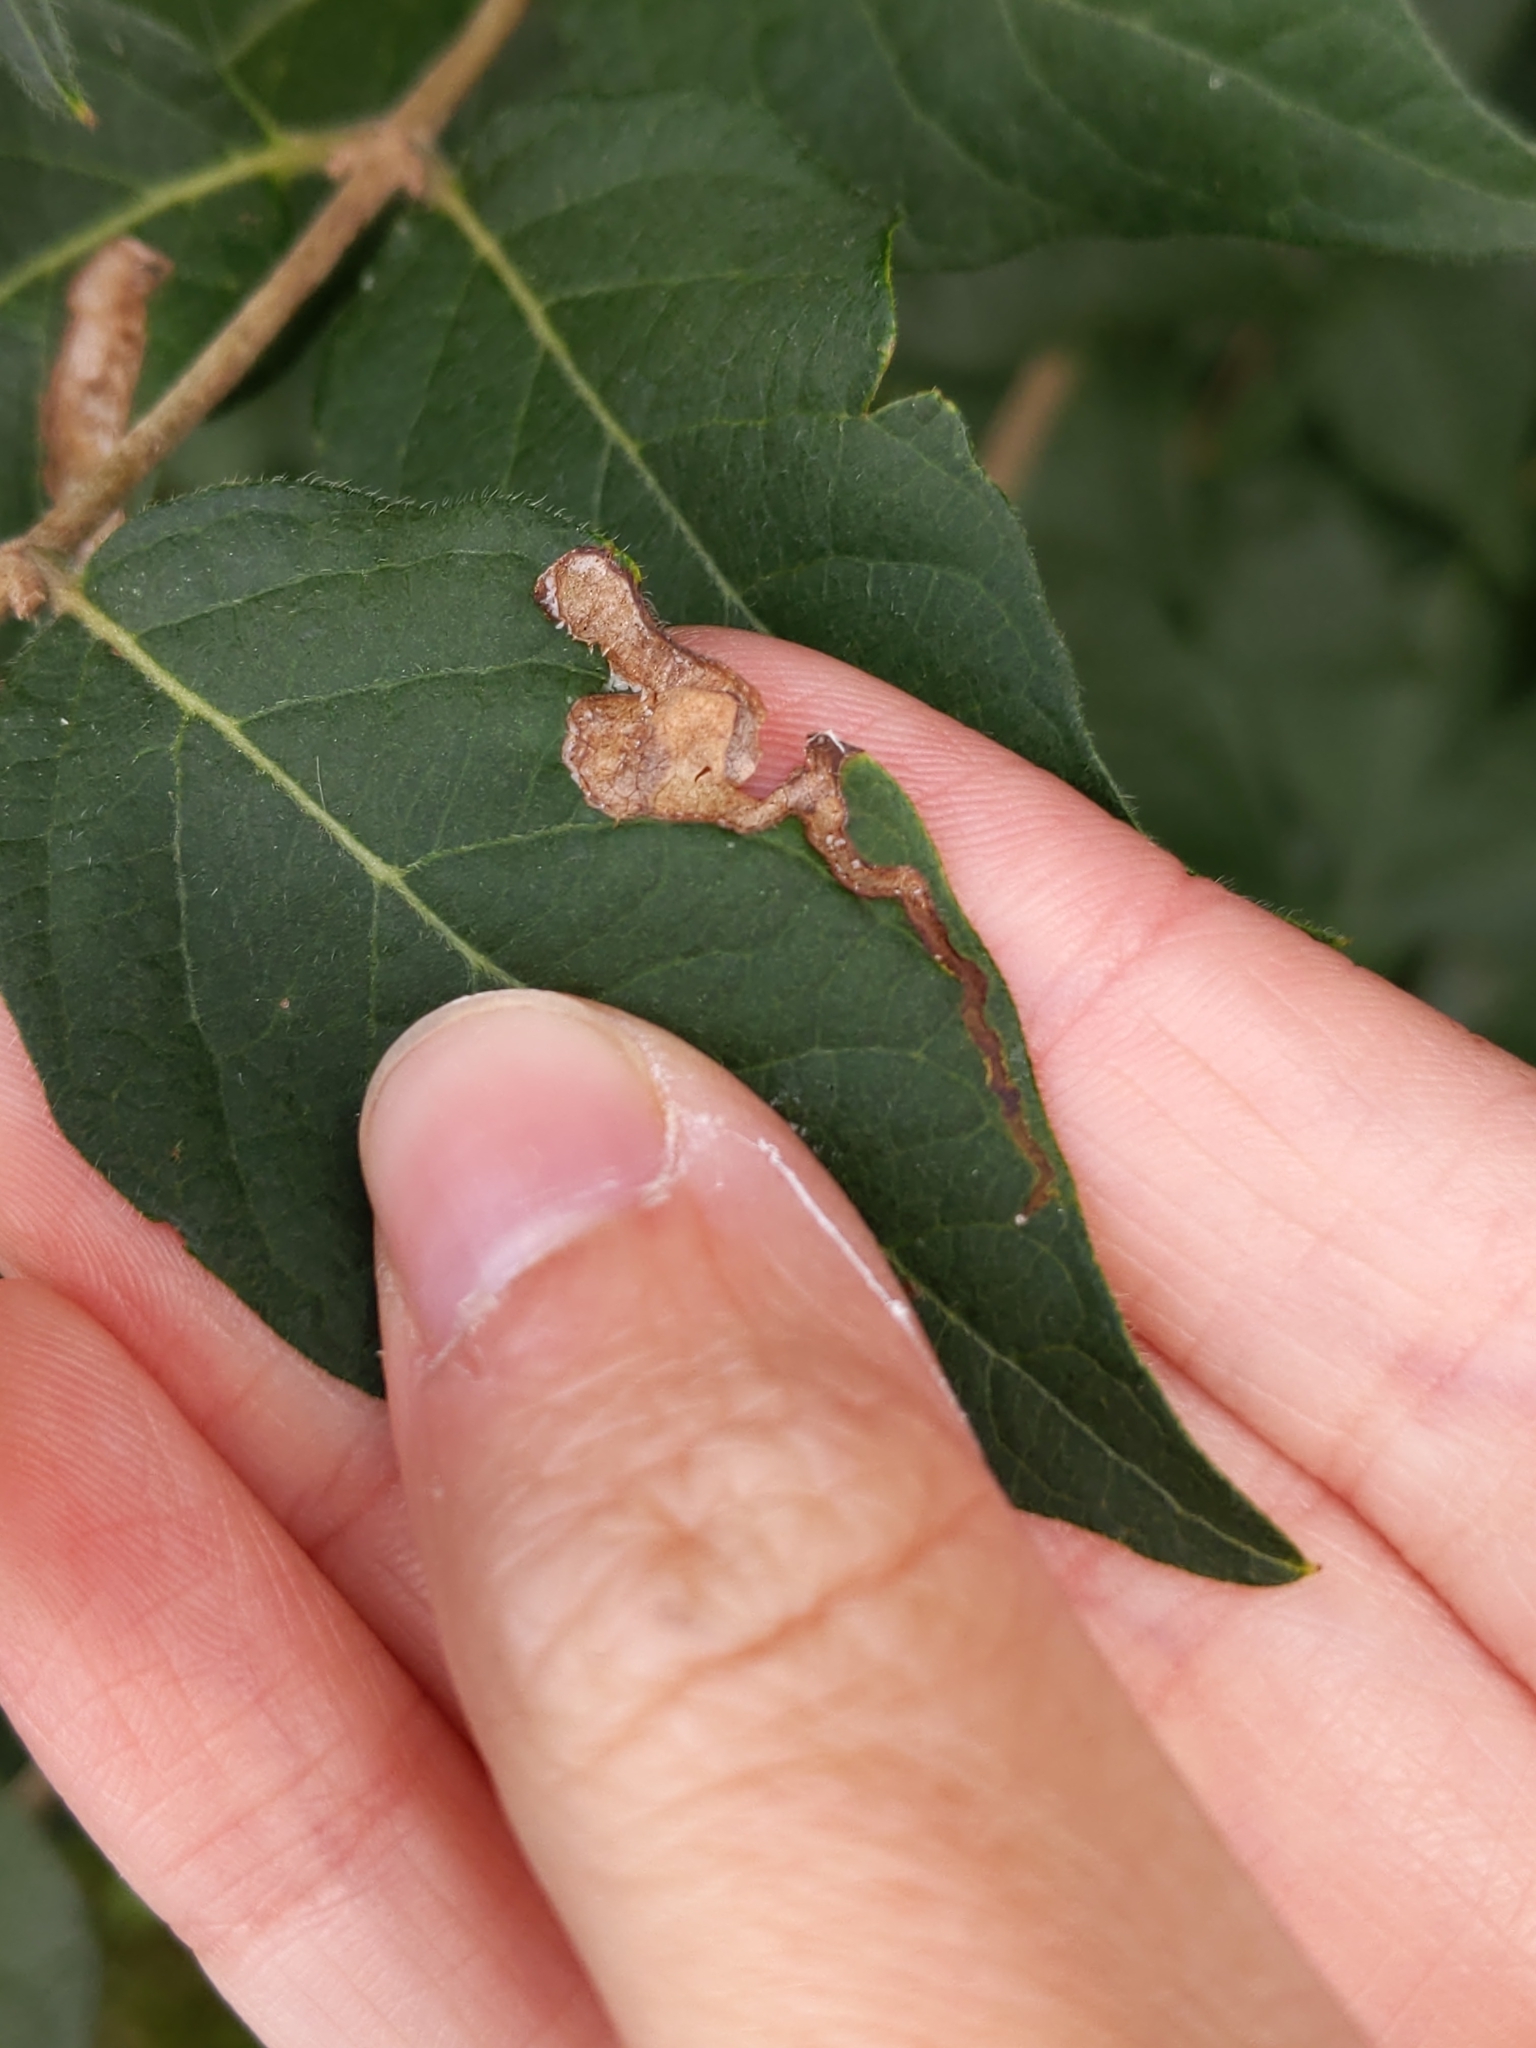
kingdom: Animalia
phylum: Arthropoda
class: Insecta
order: Diptera
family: Agromyzidae
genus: Aulagromyza
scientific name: Aulagromyza
